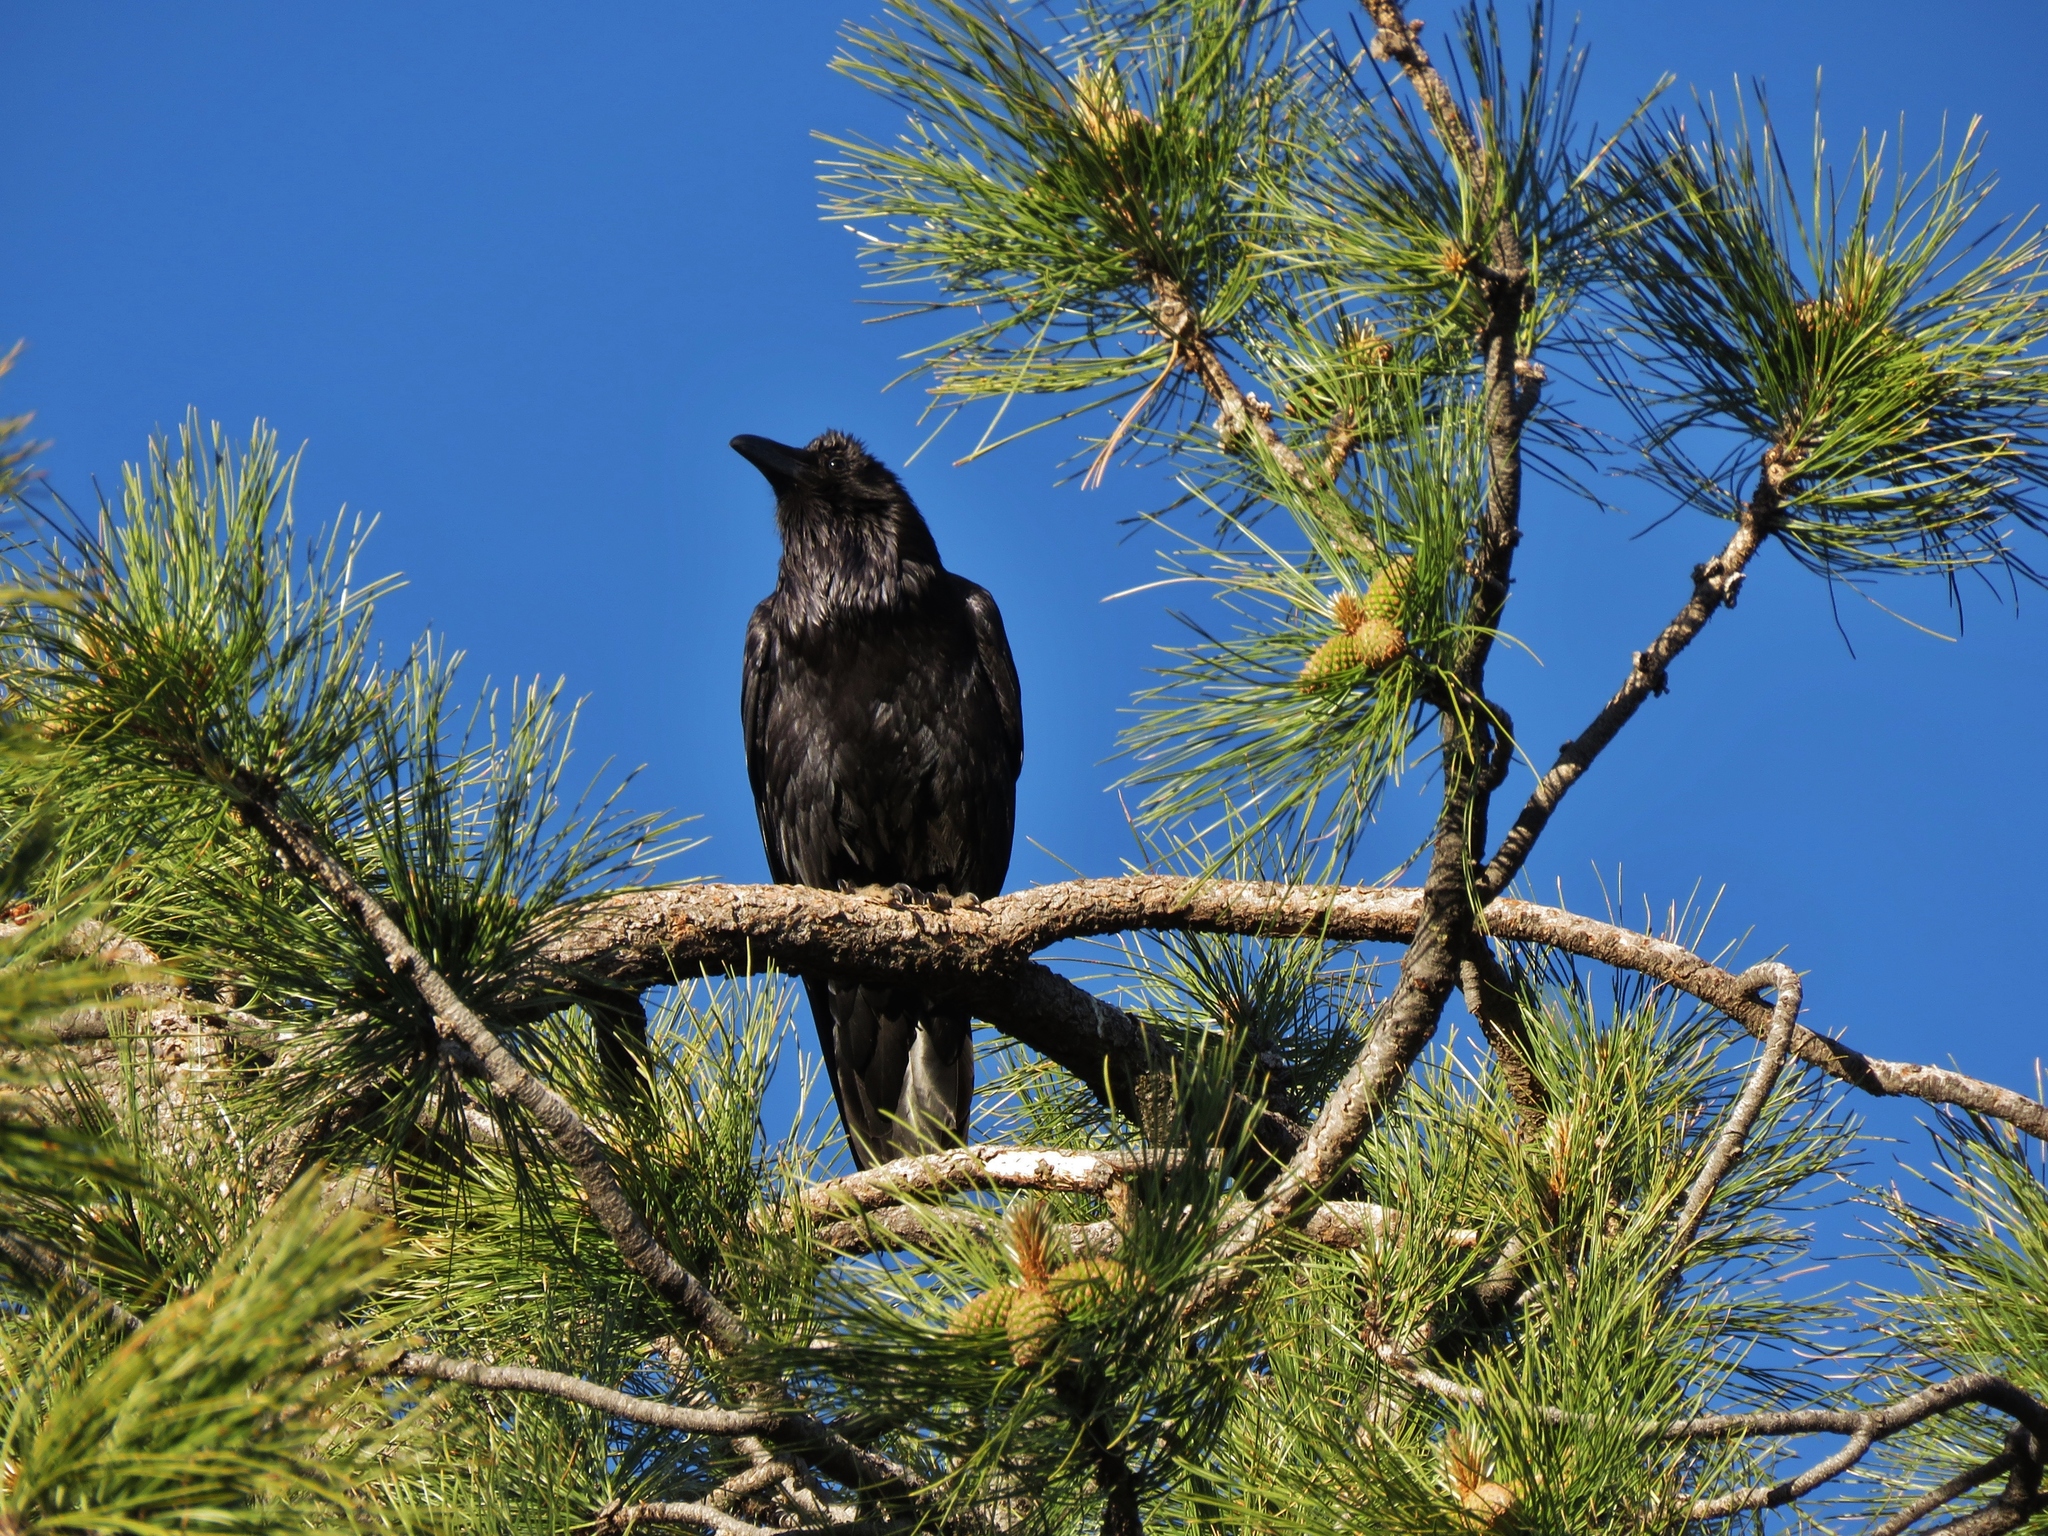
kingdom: Animalia
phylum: Chordata
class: Aves
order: Passeriformes
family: Corvidae
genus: Corvus
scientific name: Corvus corax
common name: Common raven
